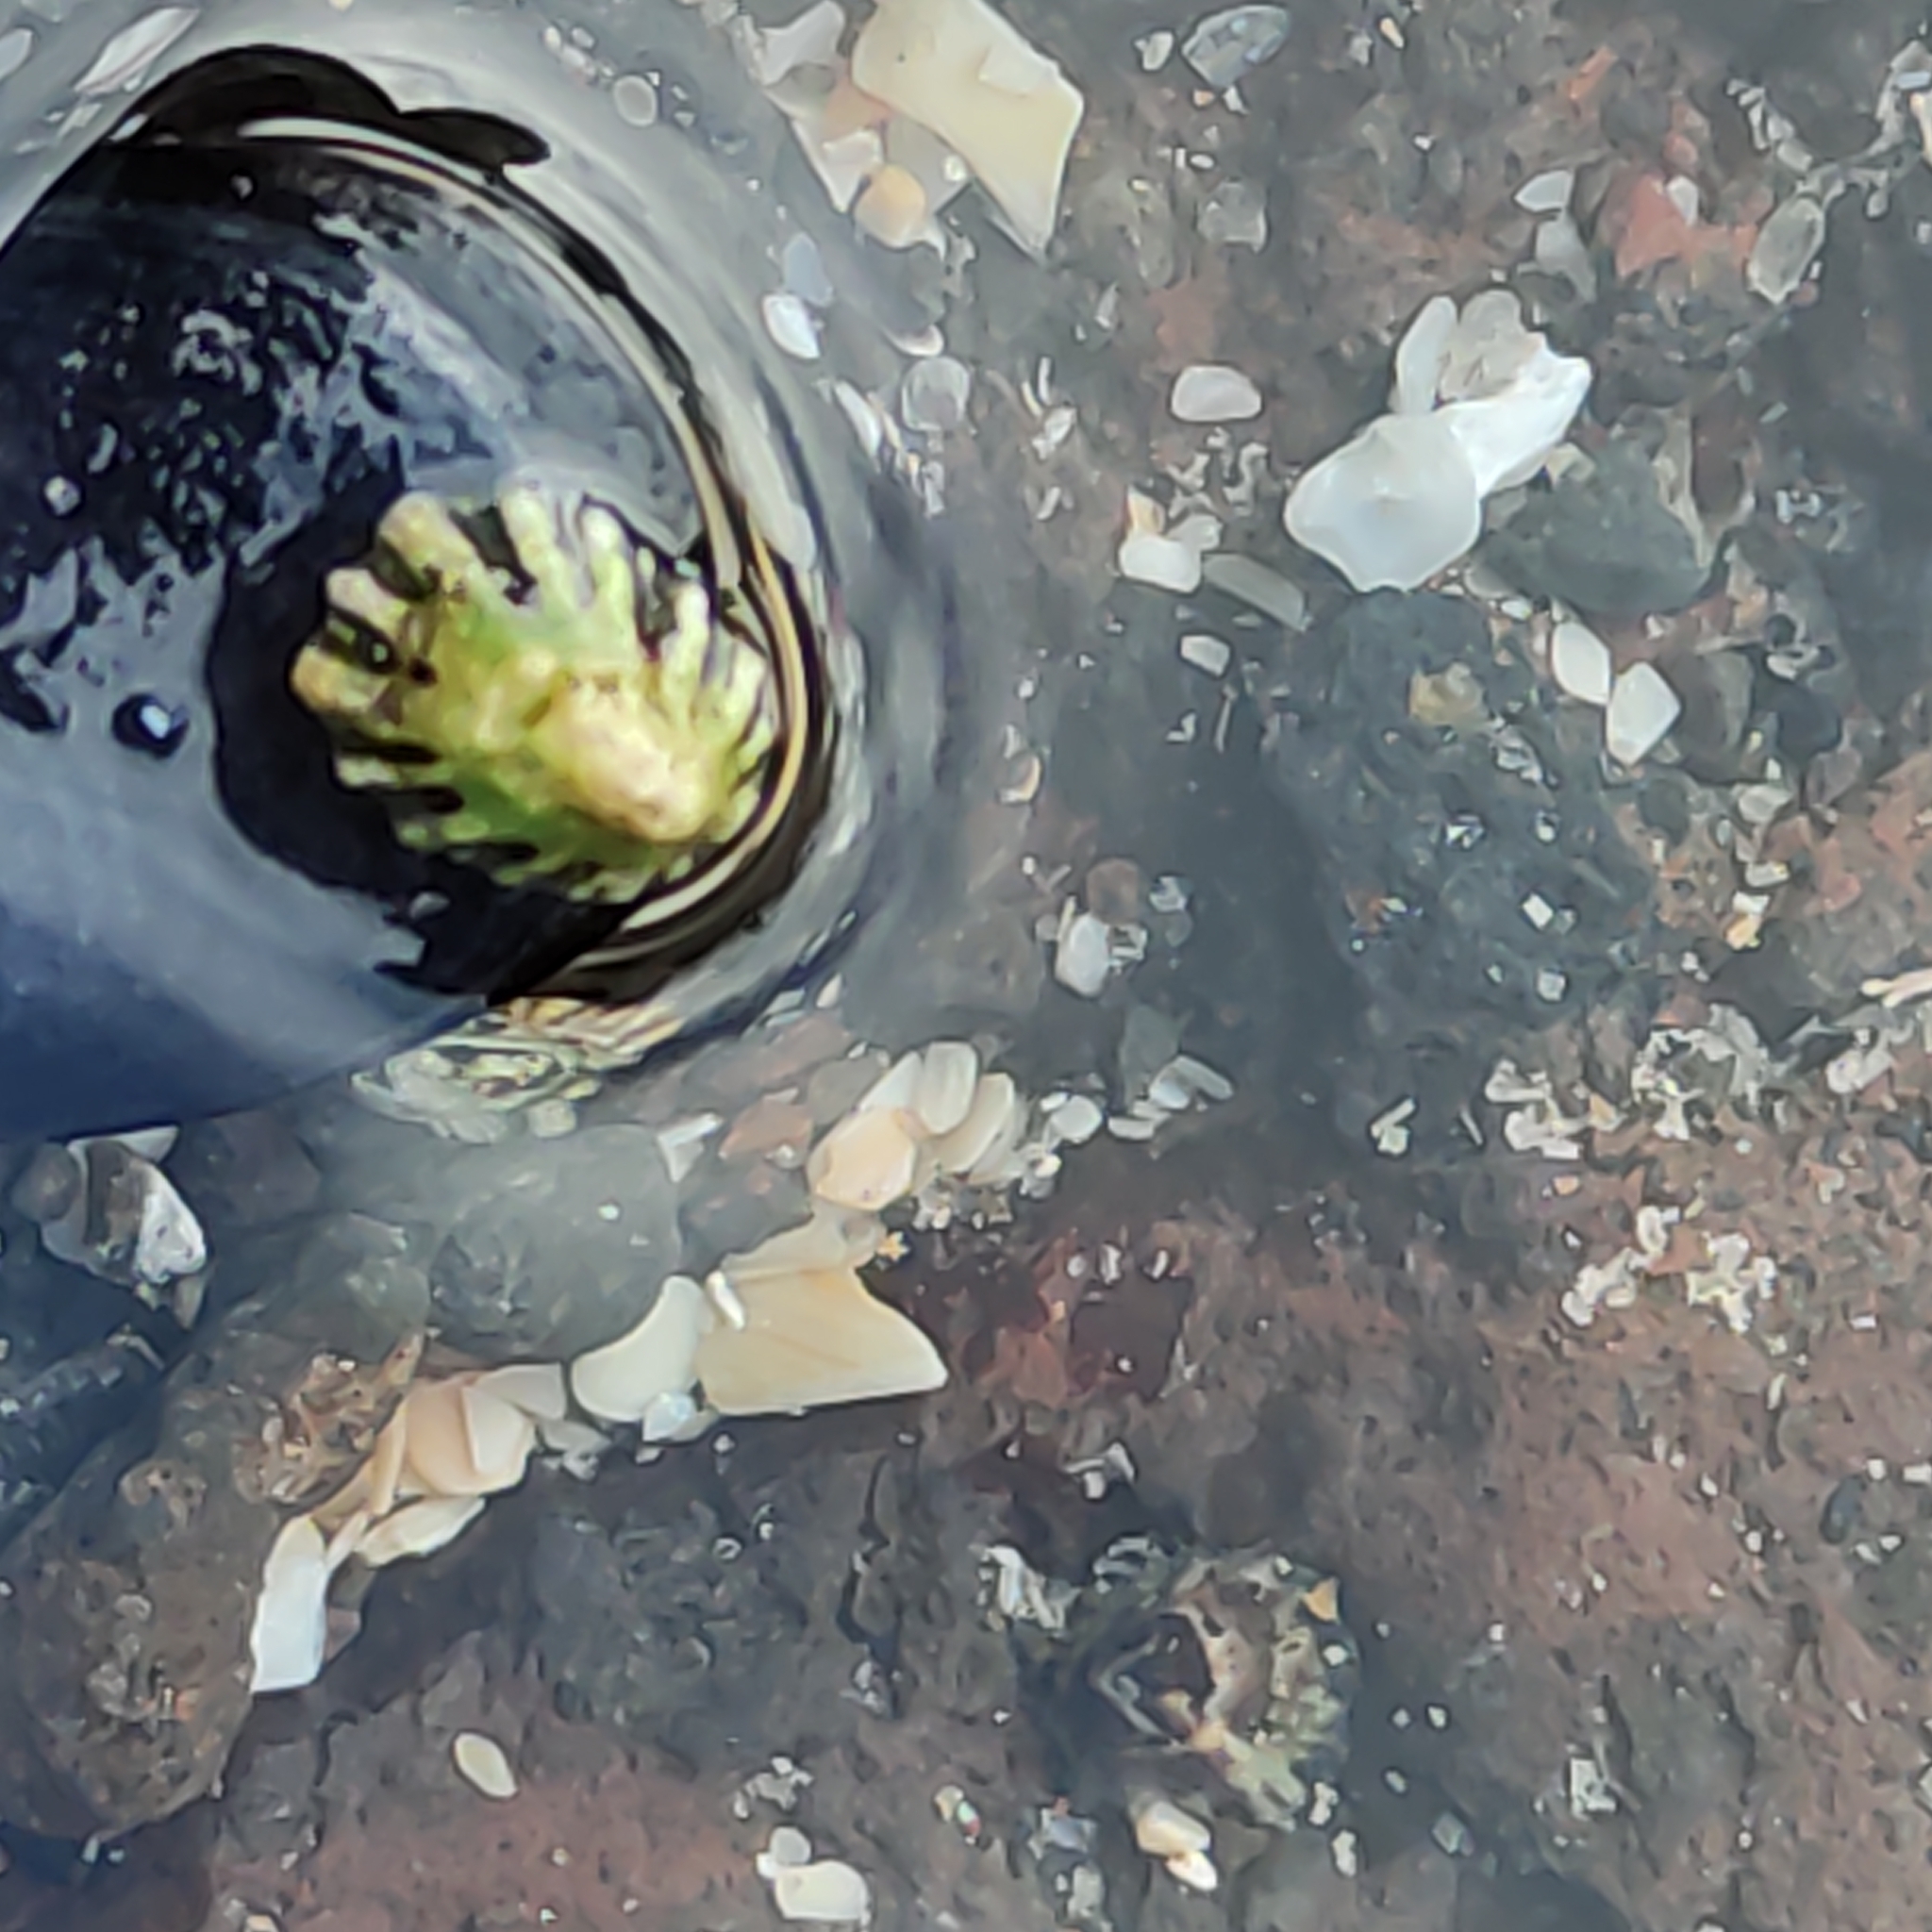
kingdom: Animalia
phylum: Mollusca
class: Gastropoda
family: Lottiidae
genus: Notoacmea
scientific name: Notoacmea scopulina
